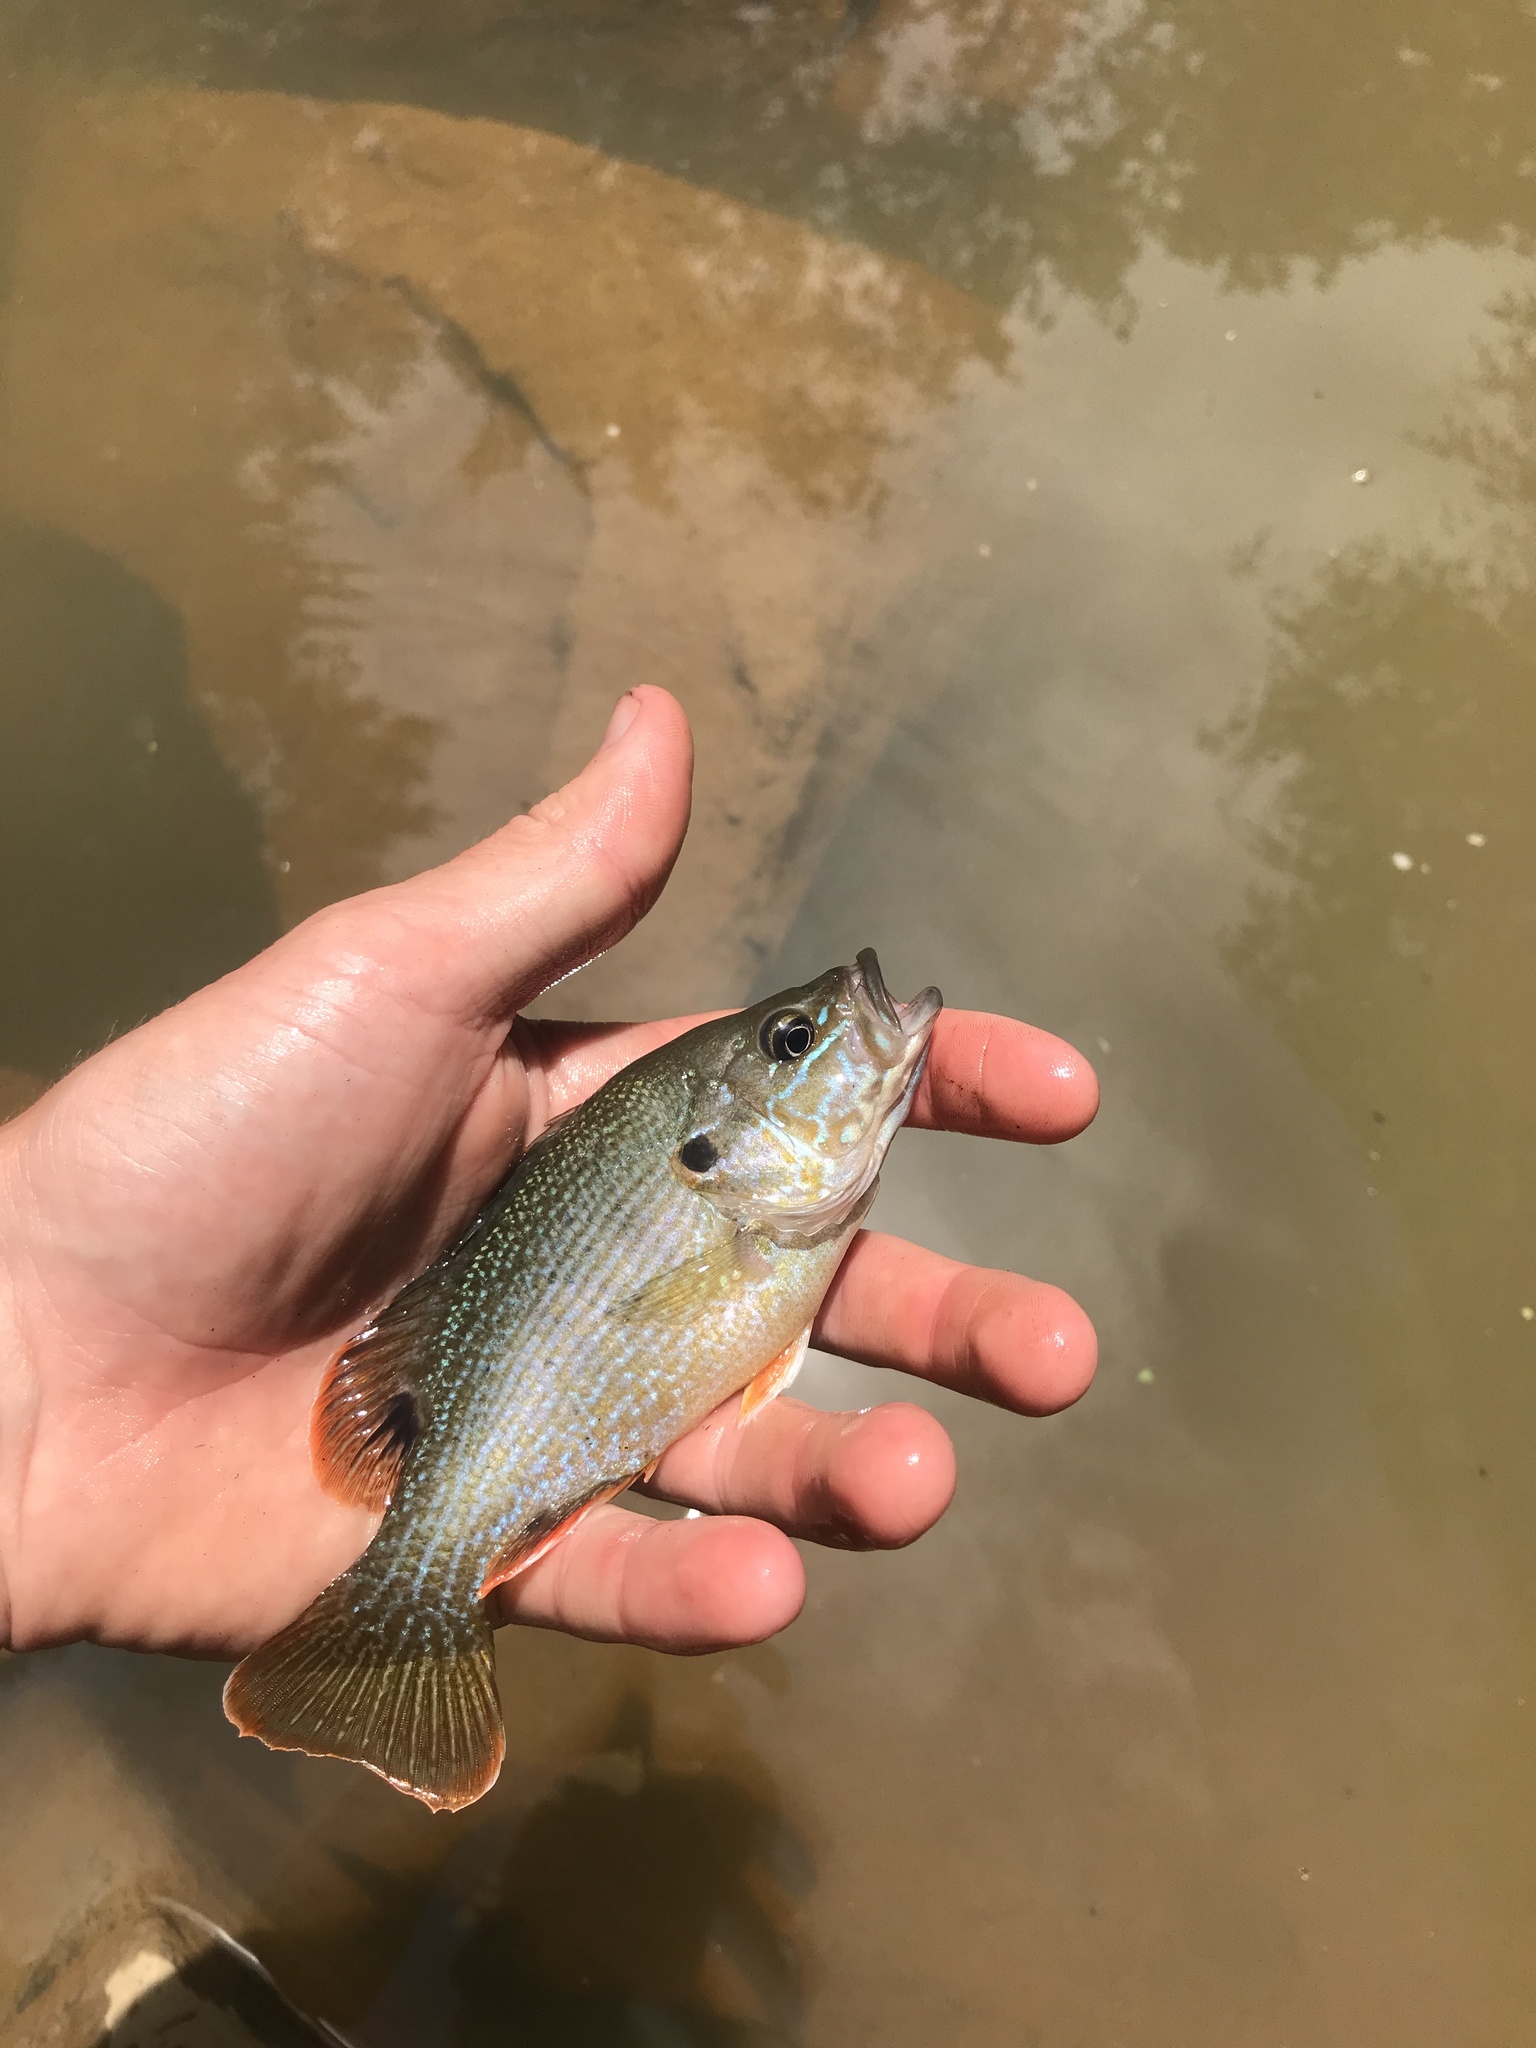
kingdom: Animalia
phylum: Chordata
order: Perciformes
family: Centrarchidae
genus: Lepomis
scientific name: Lepomis cyanellus
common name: Green sunfish
